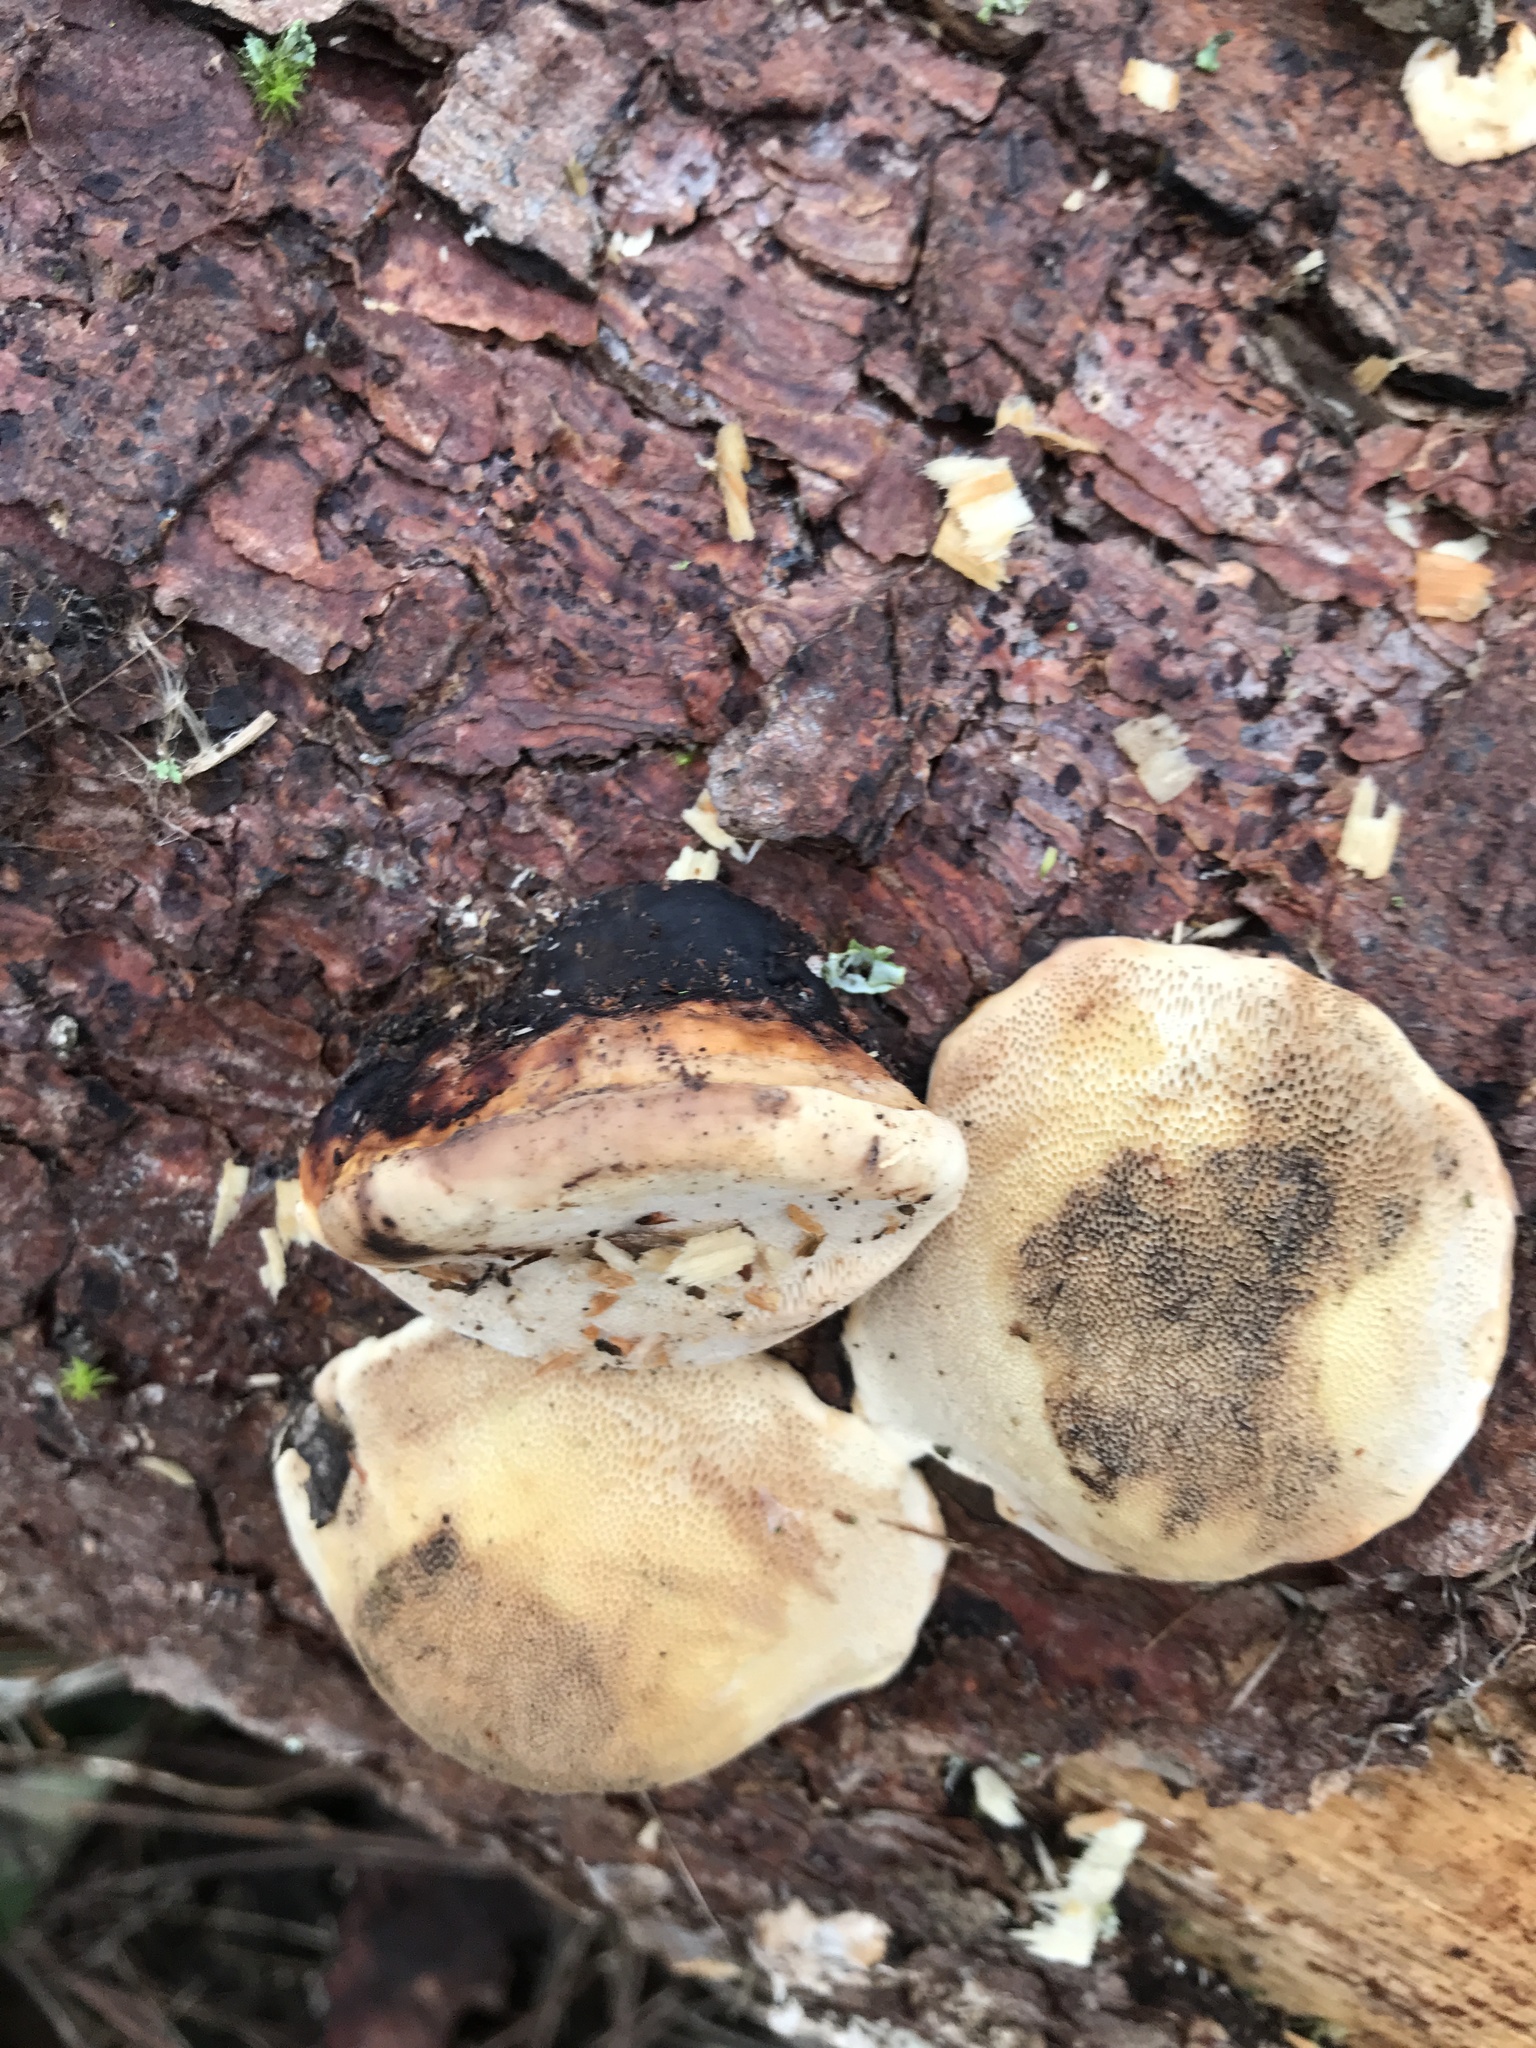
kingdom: Fungi
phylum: Basidiomycota
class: Agaricomycetes
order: Polyporales
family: Fomitopsidaceae
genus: Fomitopsis
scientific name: Fomitopsis pinicola
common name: Red-belted bracket
